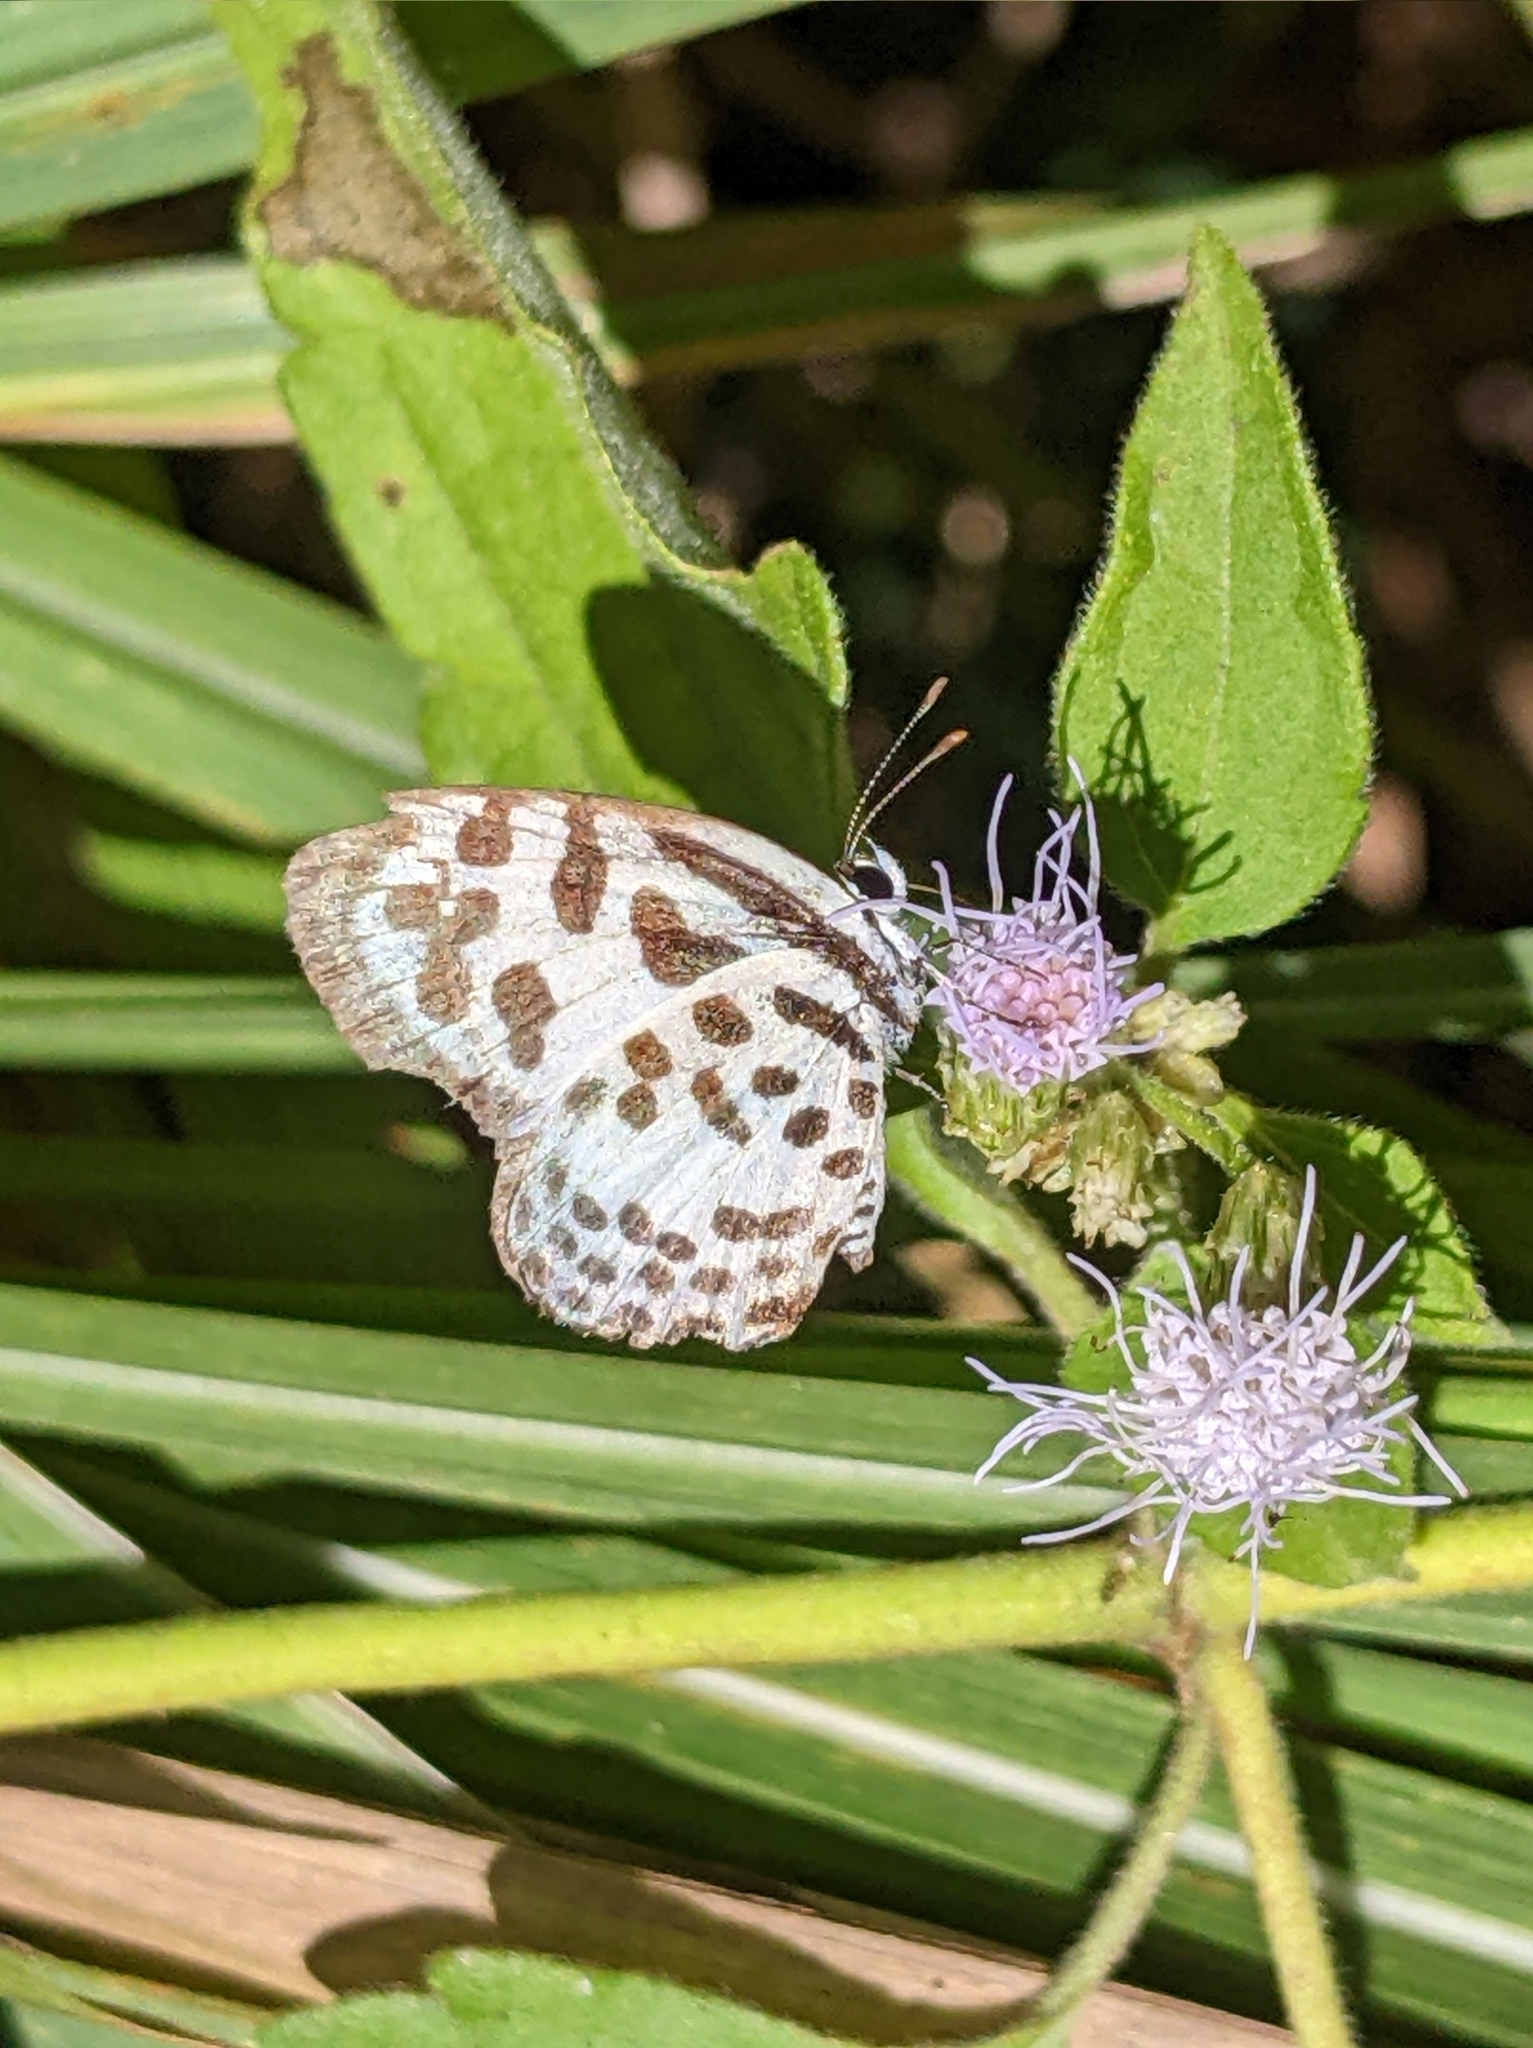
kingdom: Animalia
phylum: Arthropoda
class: Insecta
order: Lepidoptera
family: Lycaenidae
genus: Castalius
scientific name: Castalius rosimon
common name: Common pierrot
